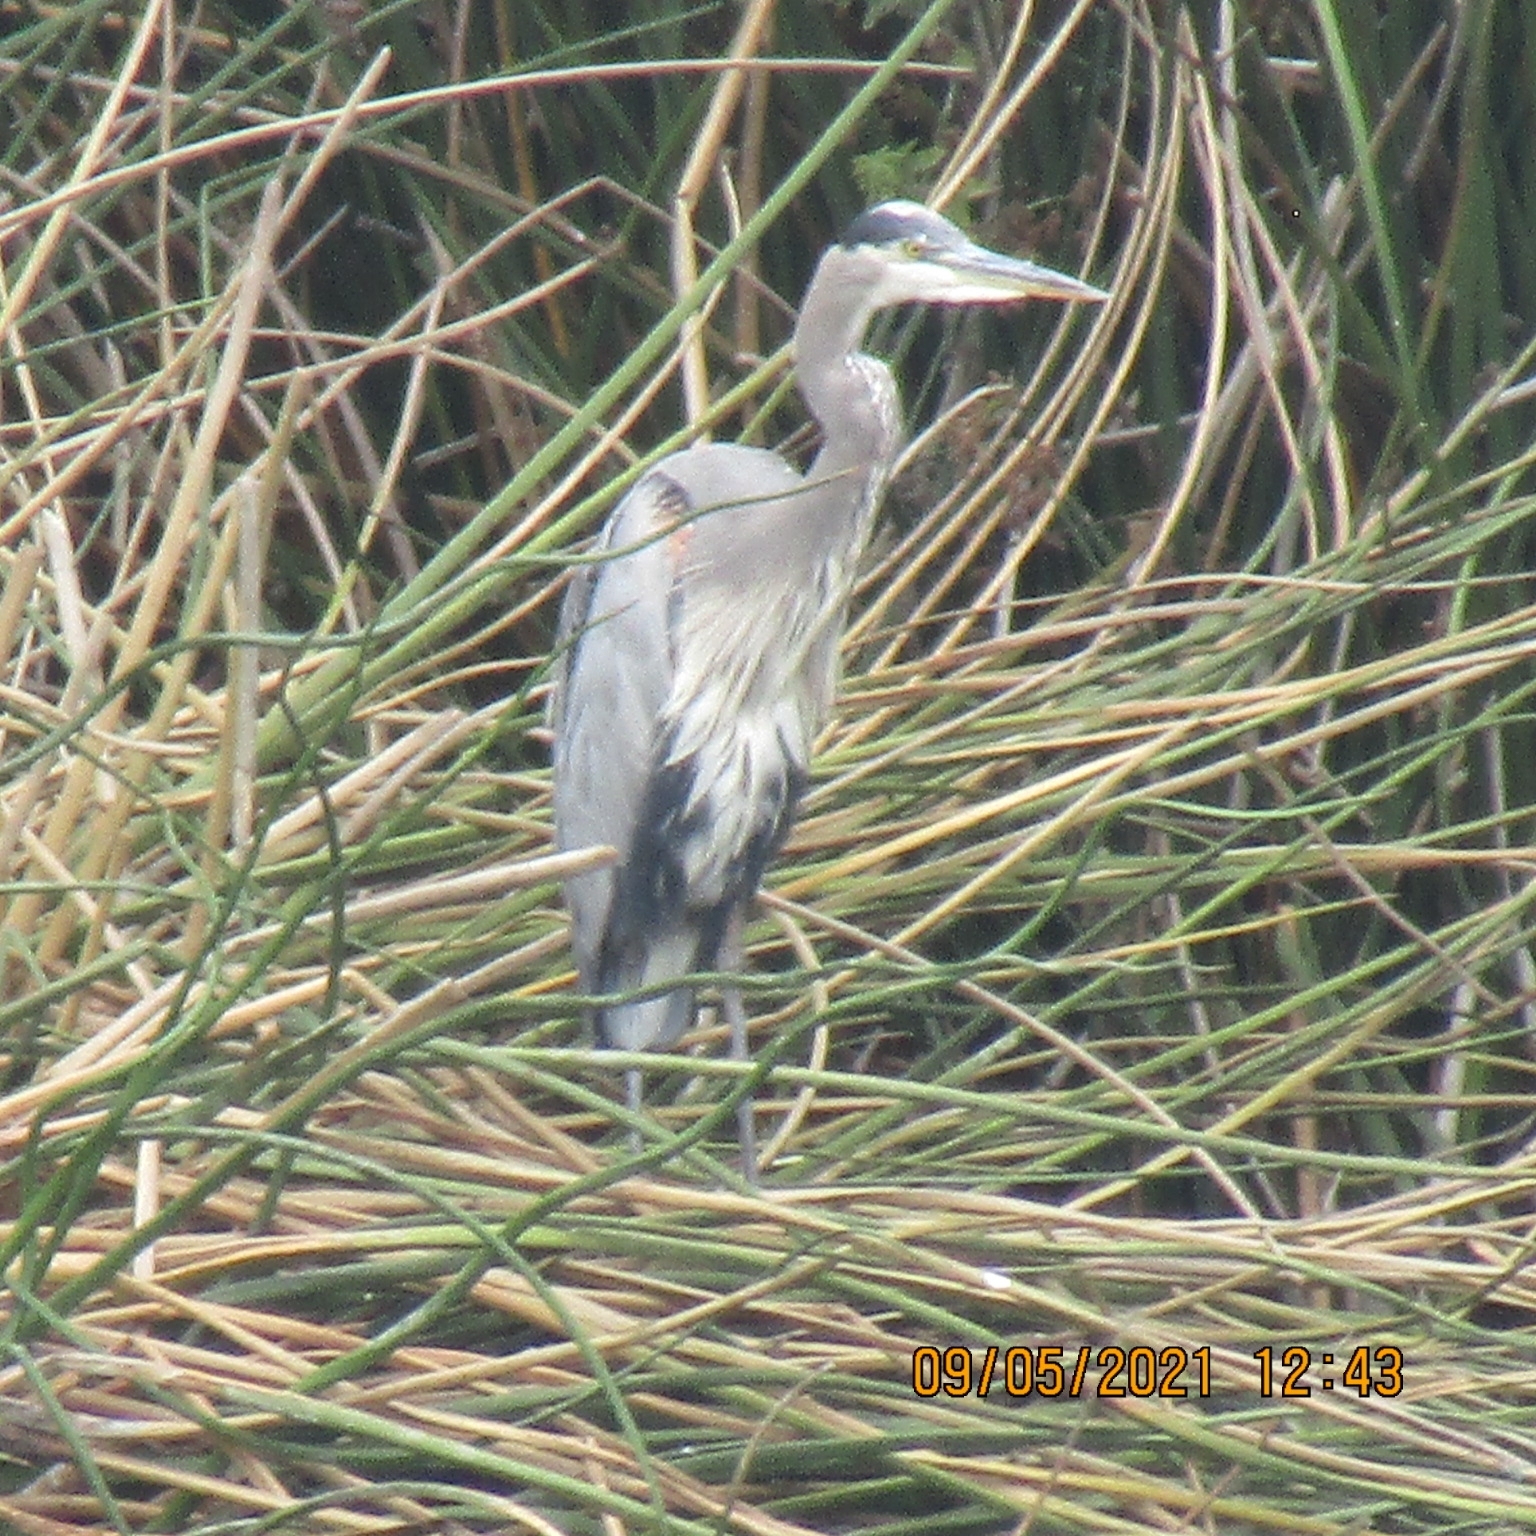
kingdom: Animalia
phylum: Chordata
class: Aves
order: Pelecaniformes
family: Ardeidae
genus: Ardea
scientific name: Ardea herodias
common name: Great blue heron
